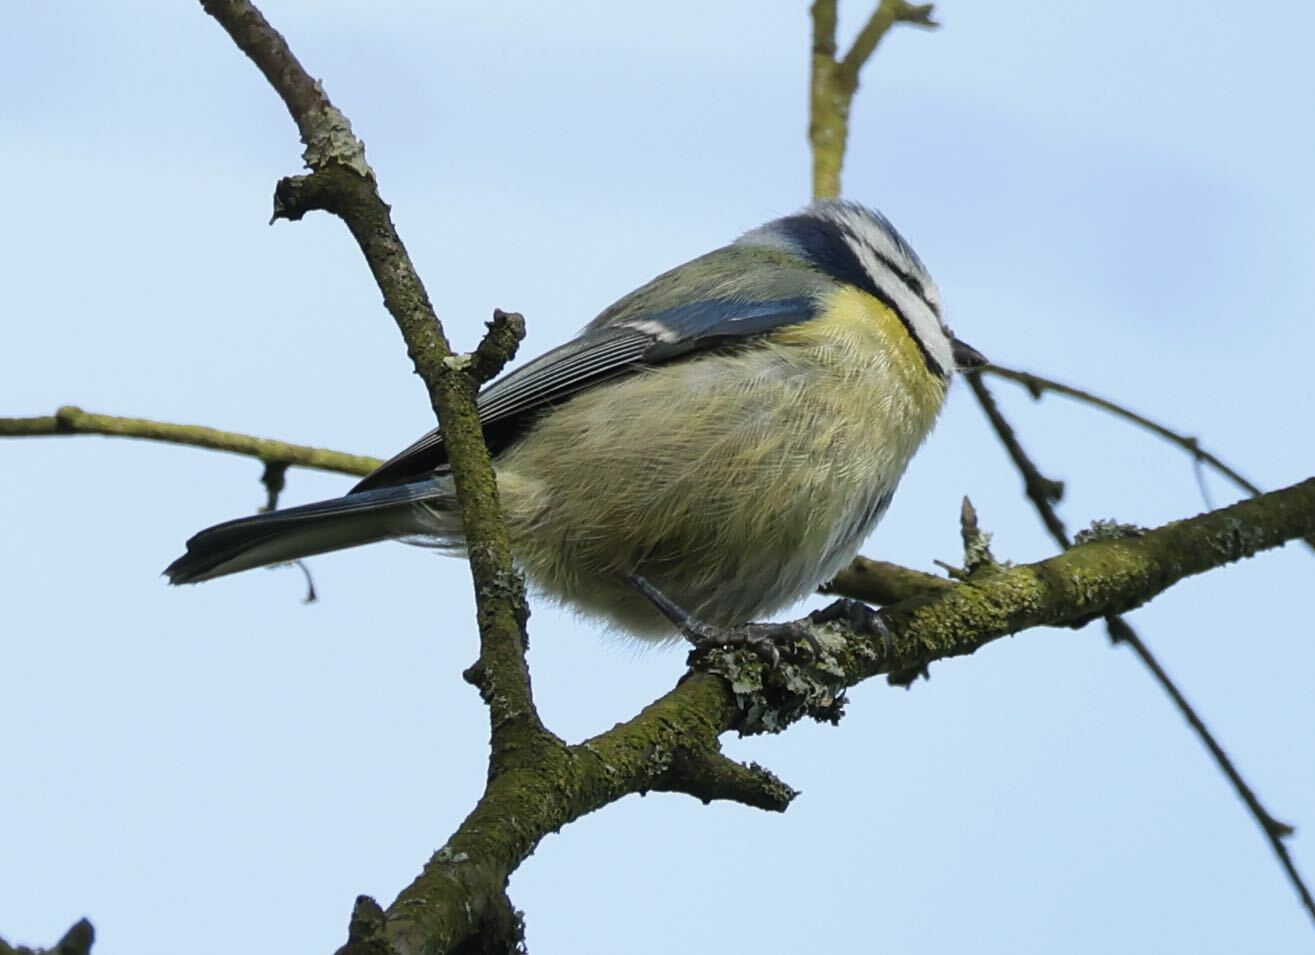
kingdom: Animalia
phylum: Chordata
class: Aves
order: Passeriformes
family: Paridae
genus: Cyanistes
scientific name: Cyanistes caeruleus
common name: Eurasian blue tit
